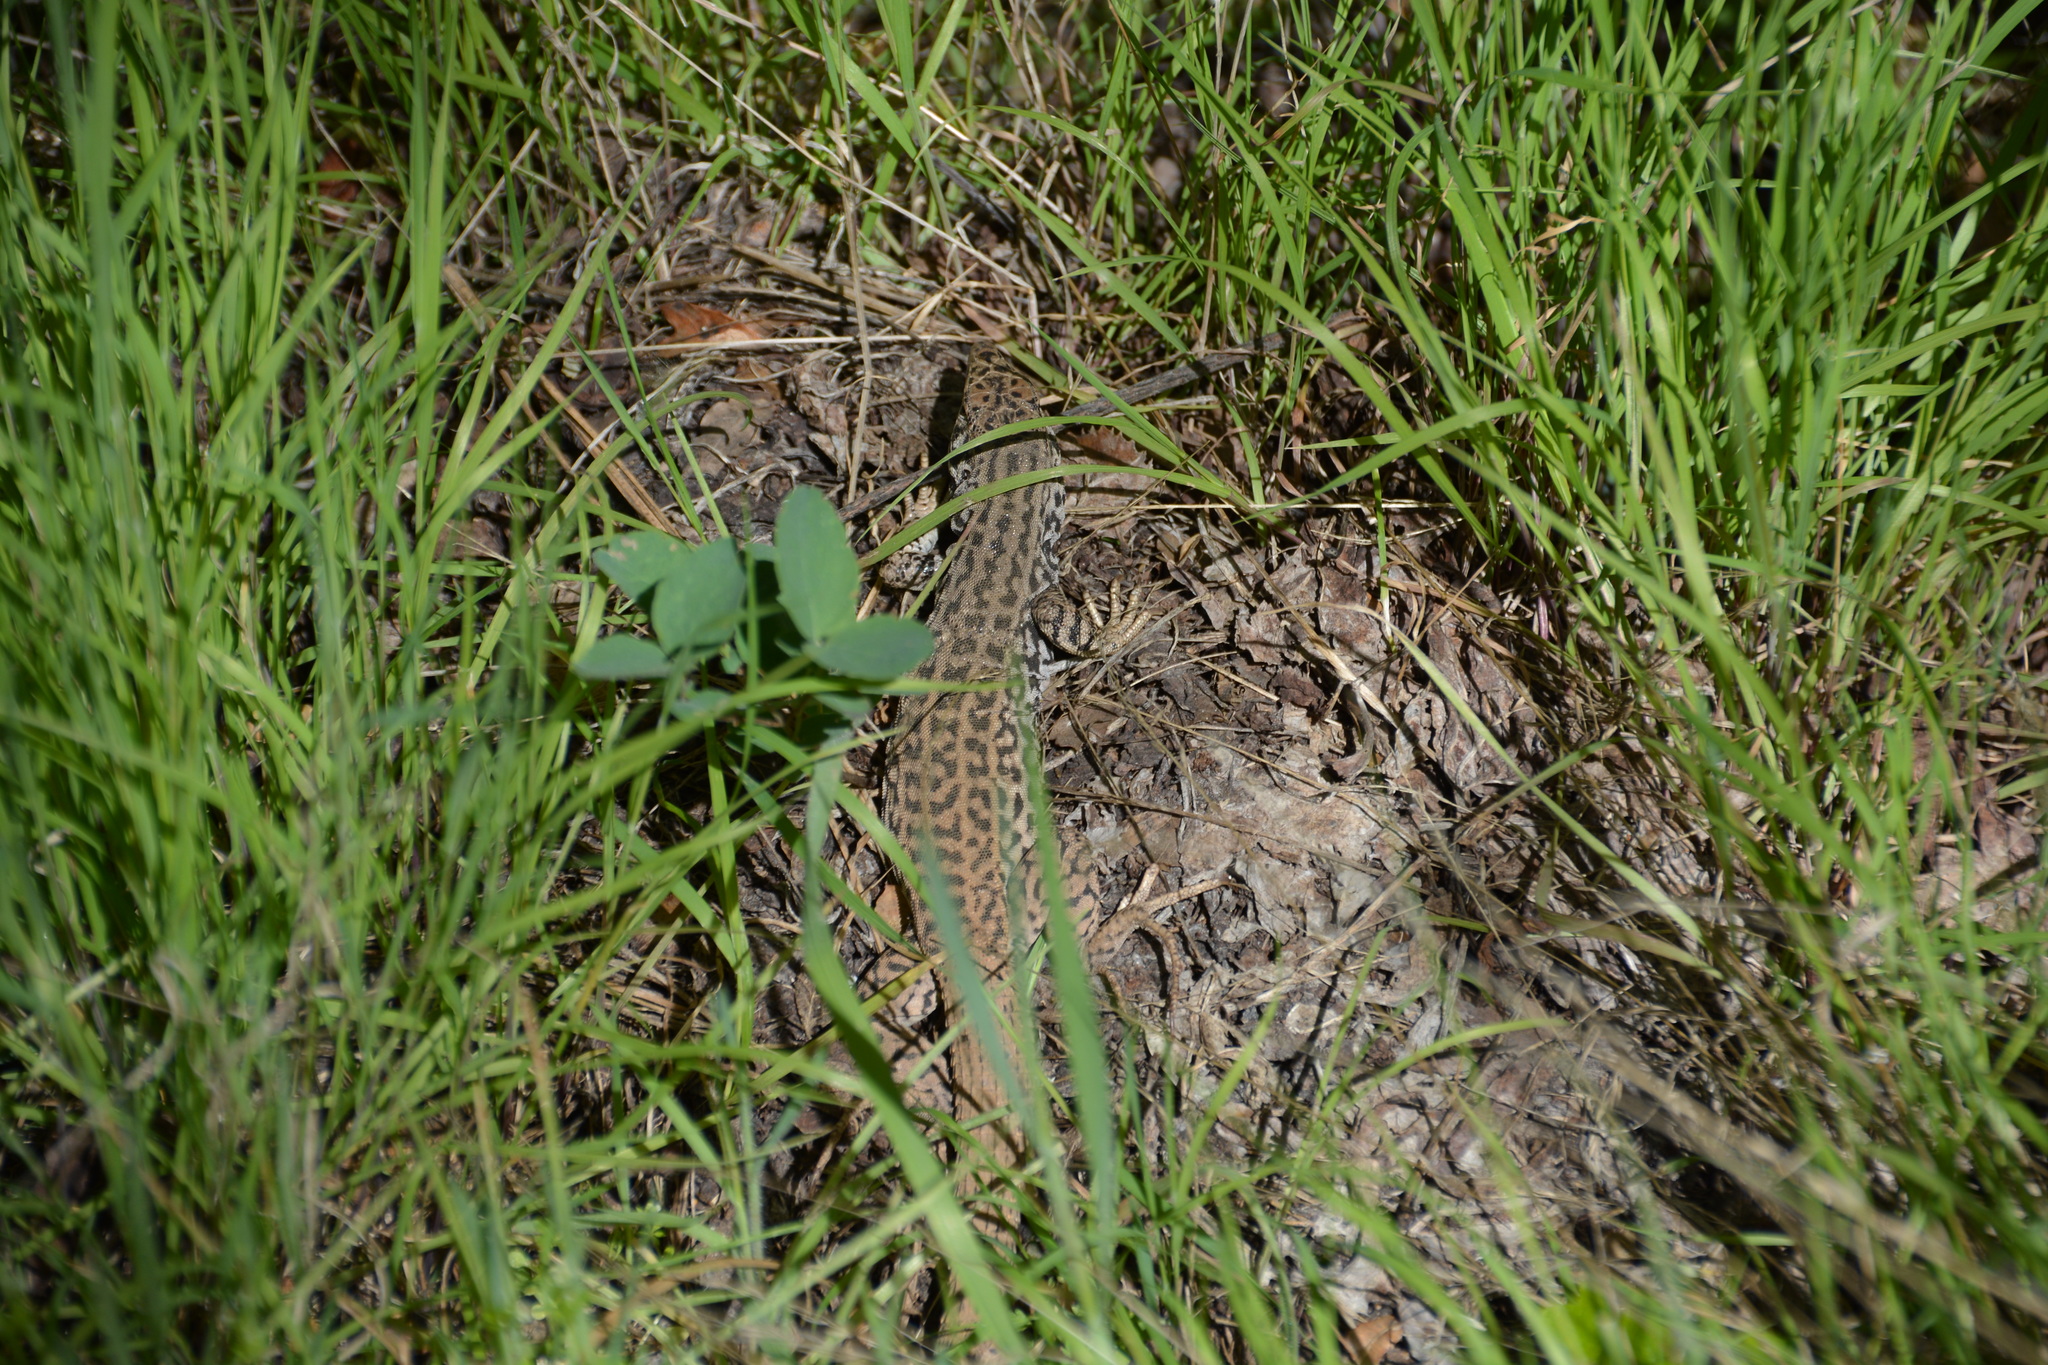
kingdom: Animalia
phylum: Chordata
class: Squamata
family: Teiidae
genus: Aspidoscelis
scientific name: Aspidoscelis tigris
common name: Tiger whiptail
